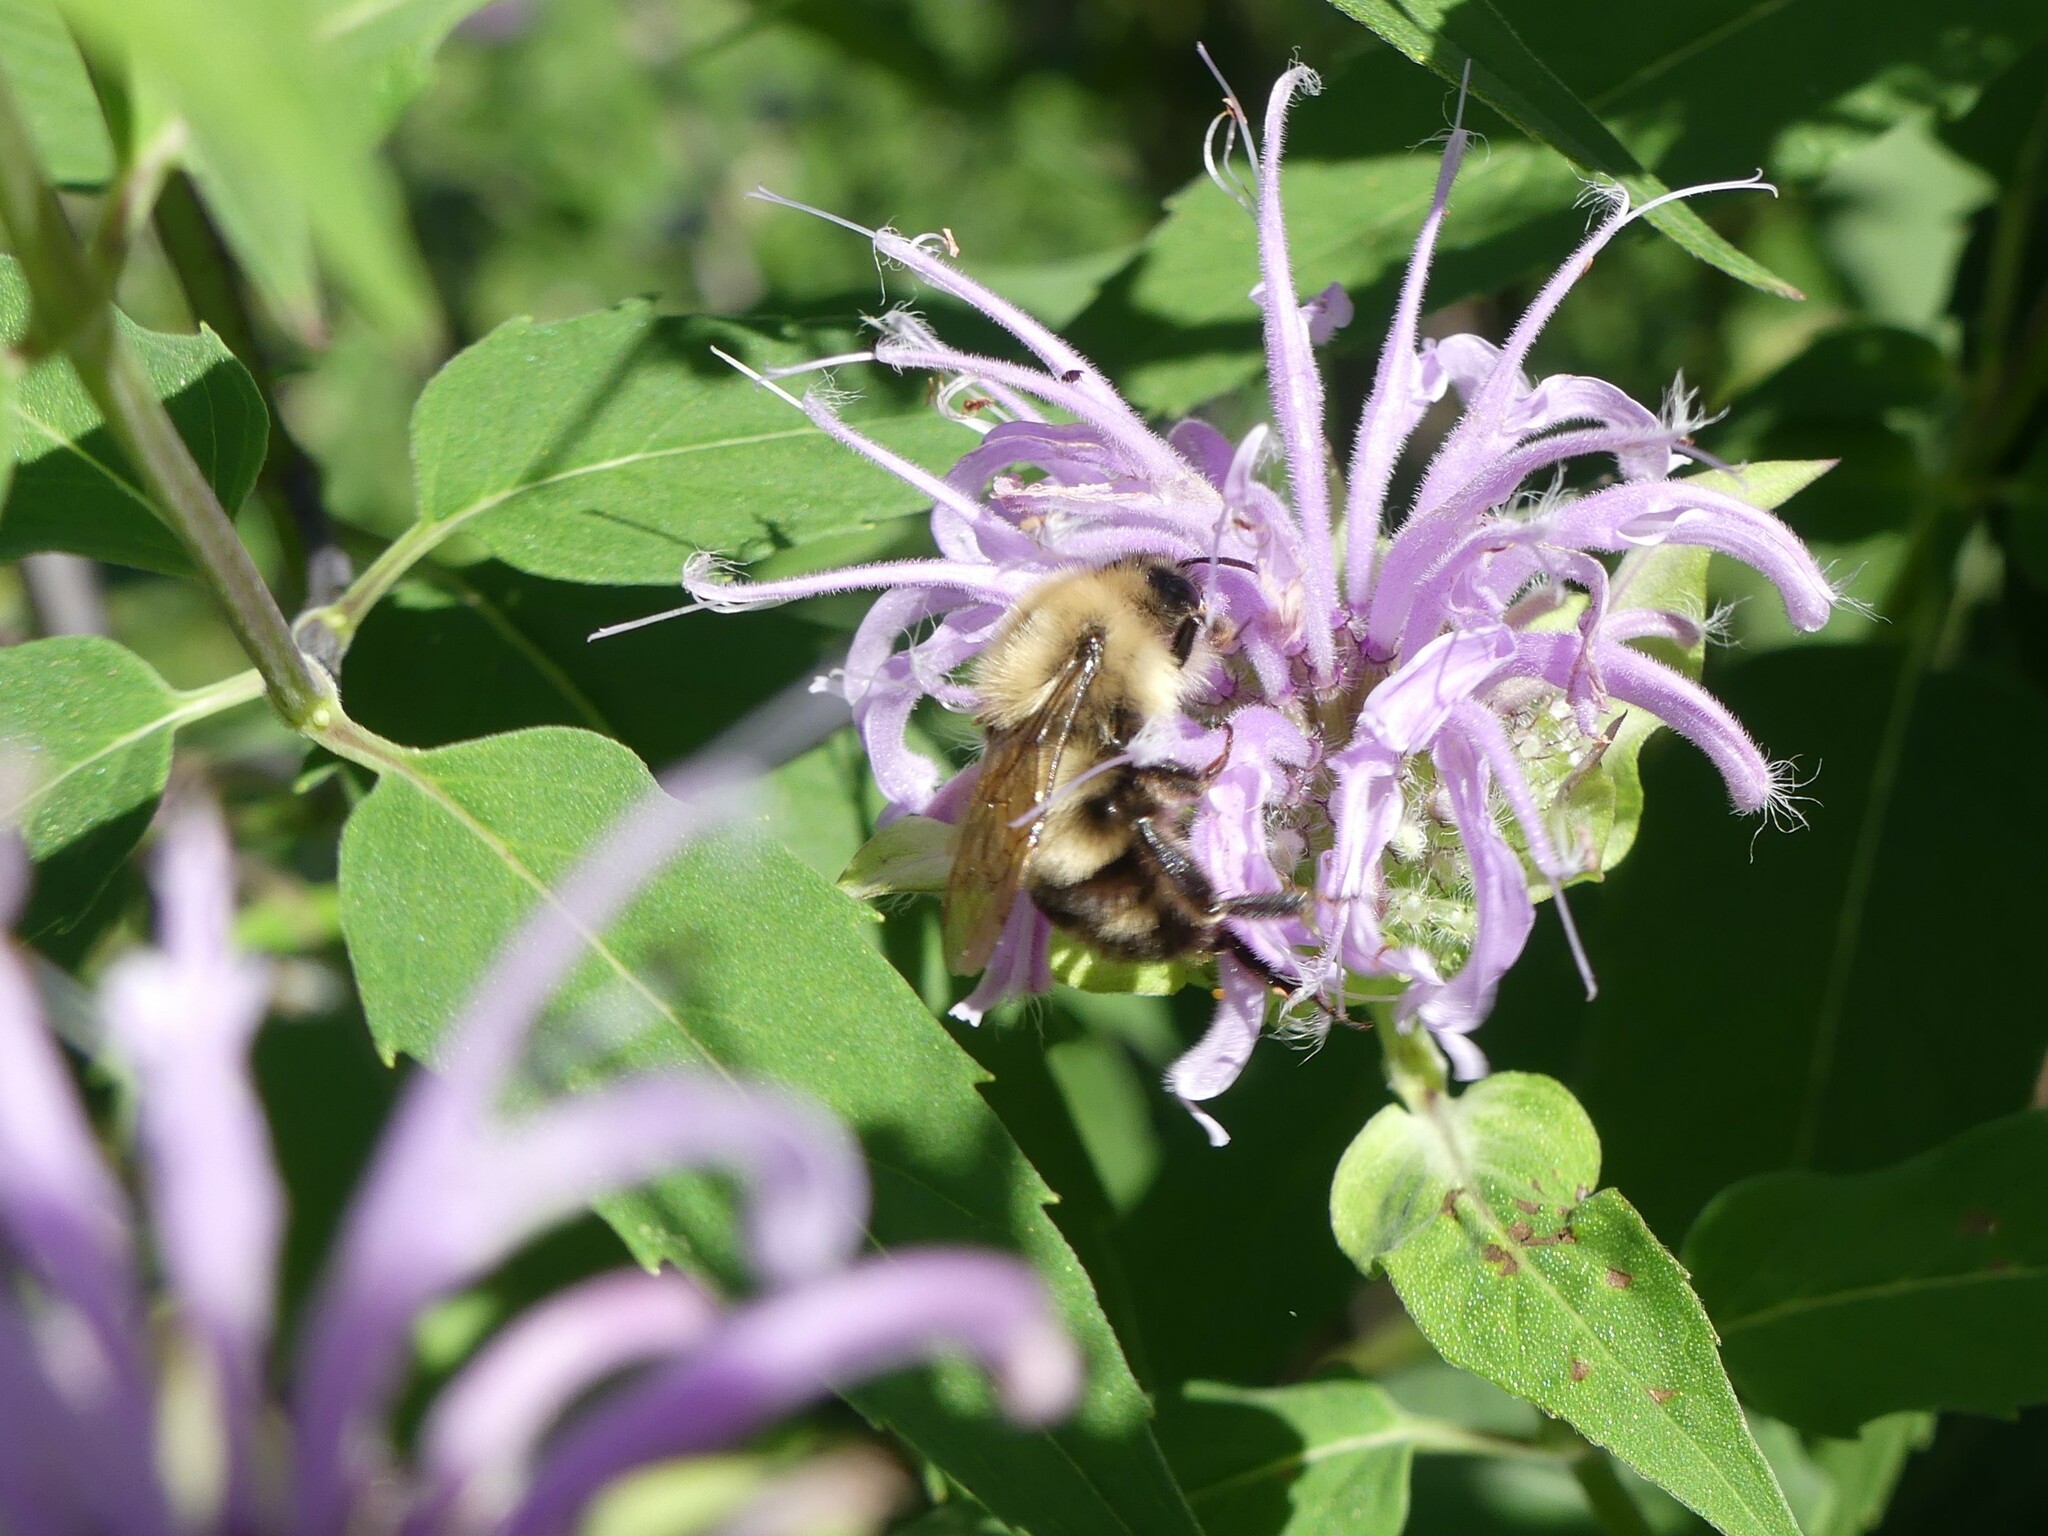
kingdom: Animalia
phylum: Arthropoda
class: Insecta
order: Hymenoptera
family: Apidae
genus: Bombus
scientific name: Bombus bimaculatus
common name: Two-spotted bumble bee
